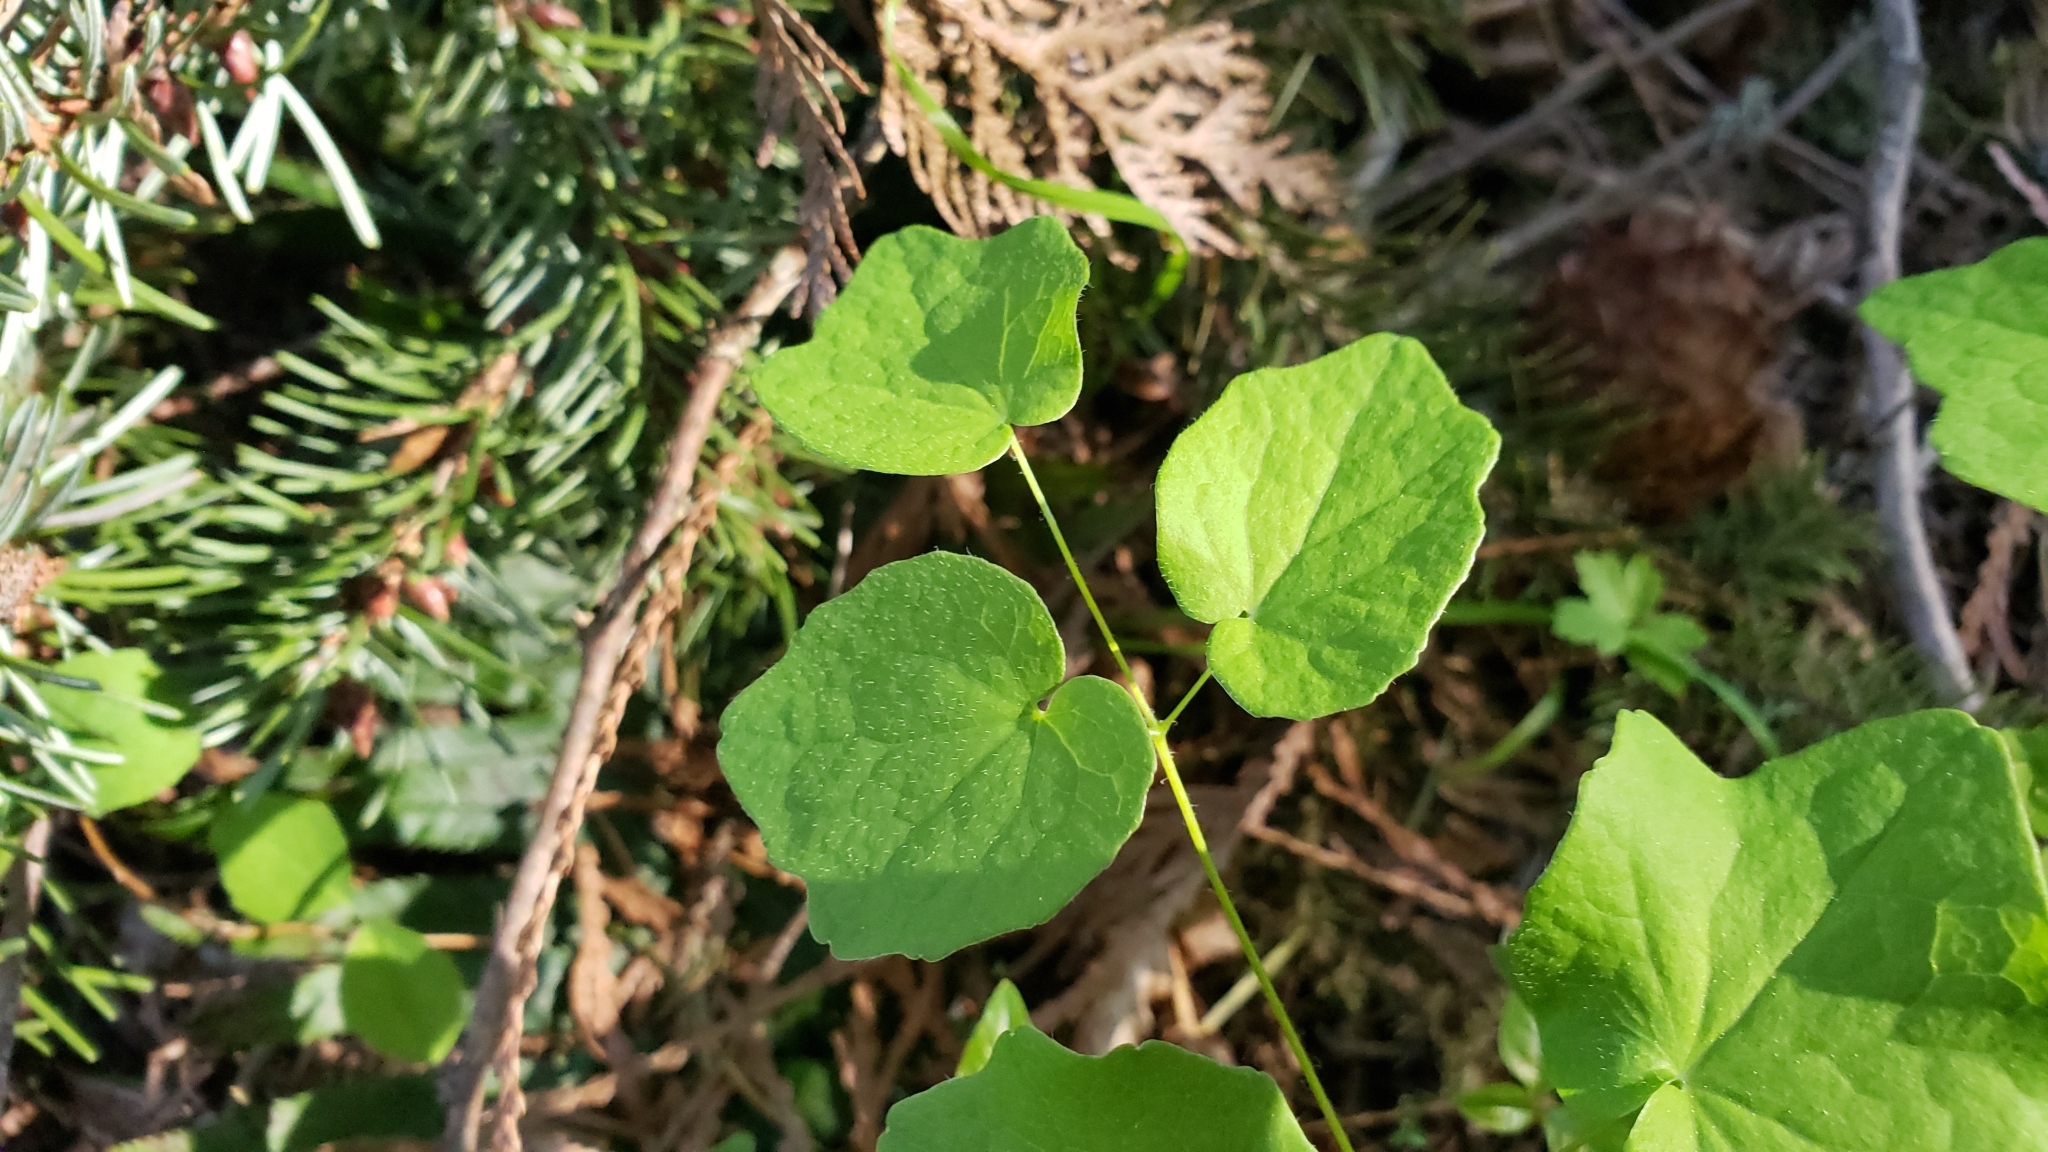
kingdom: Plantae
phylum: Tracheophyta
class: Magnoliopsida
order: Ranunculales
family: Berberidaceae
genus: Vancouveria
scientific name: Vancouveria hexandra
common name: Northern inside-out-flower
